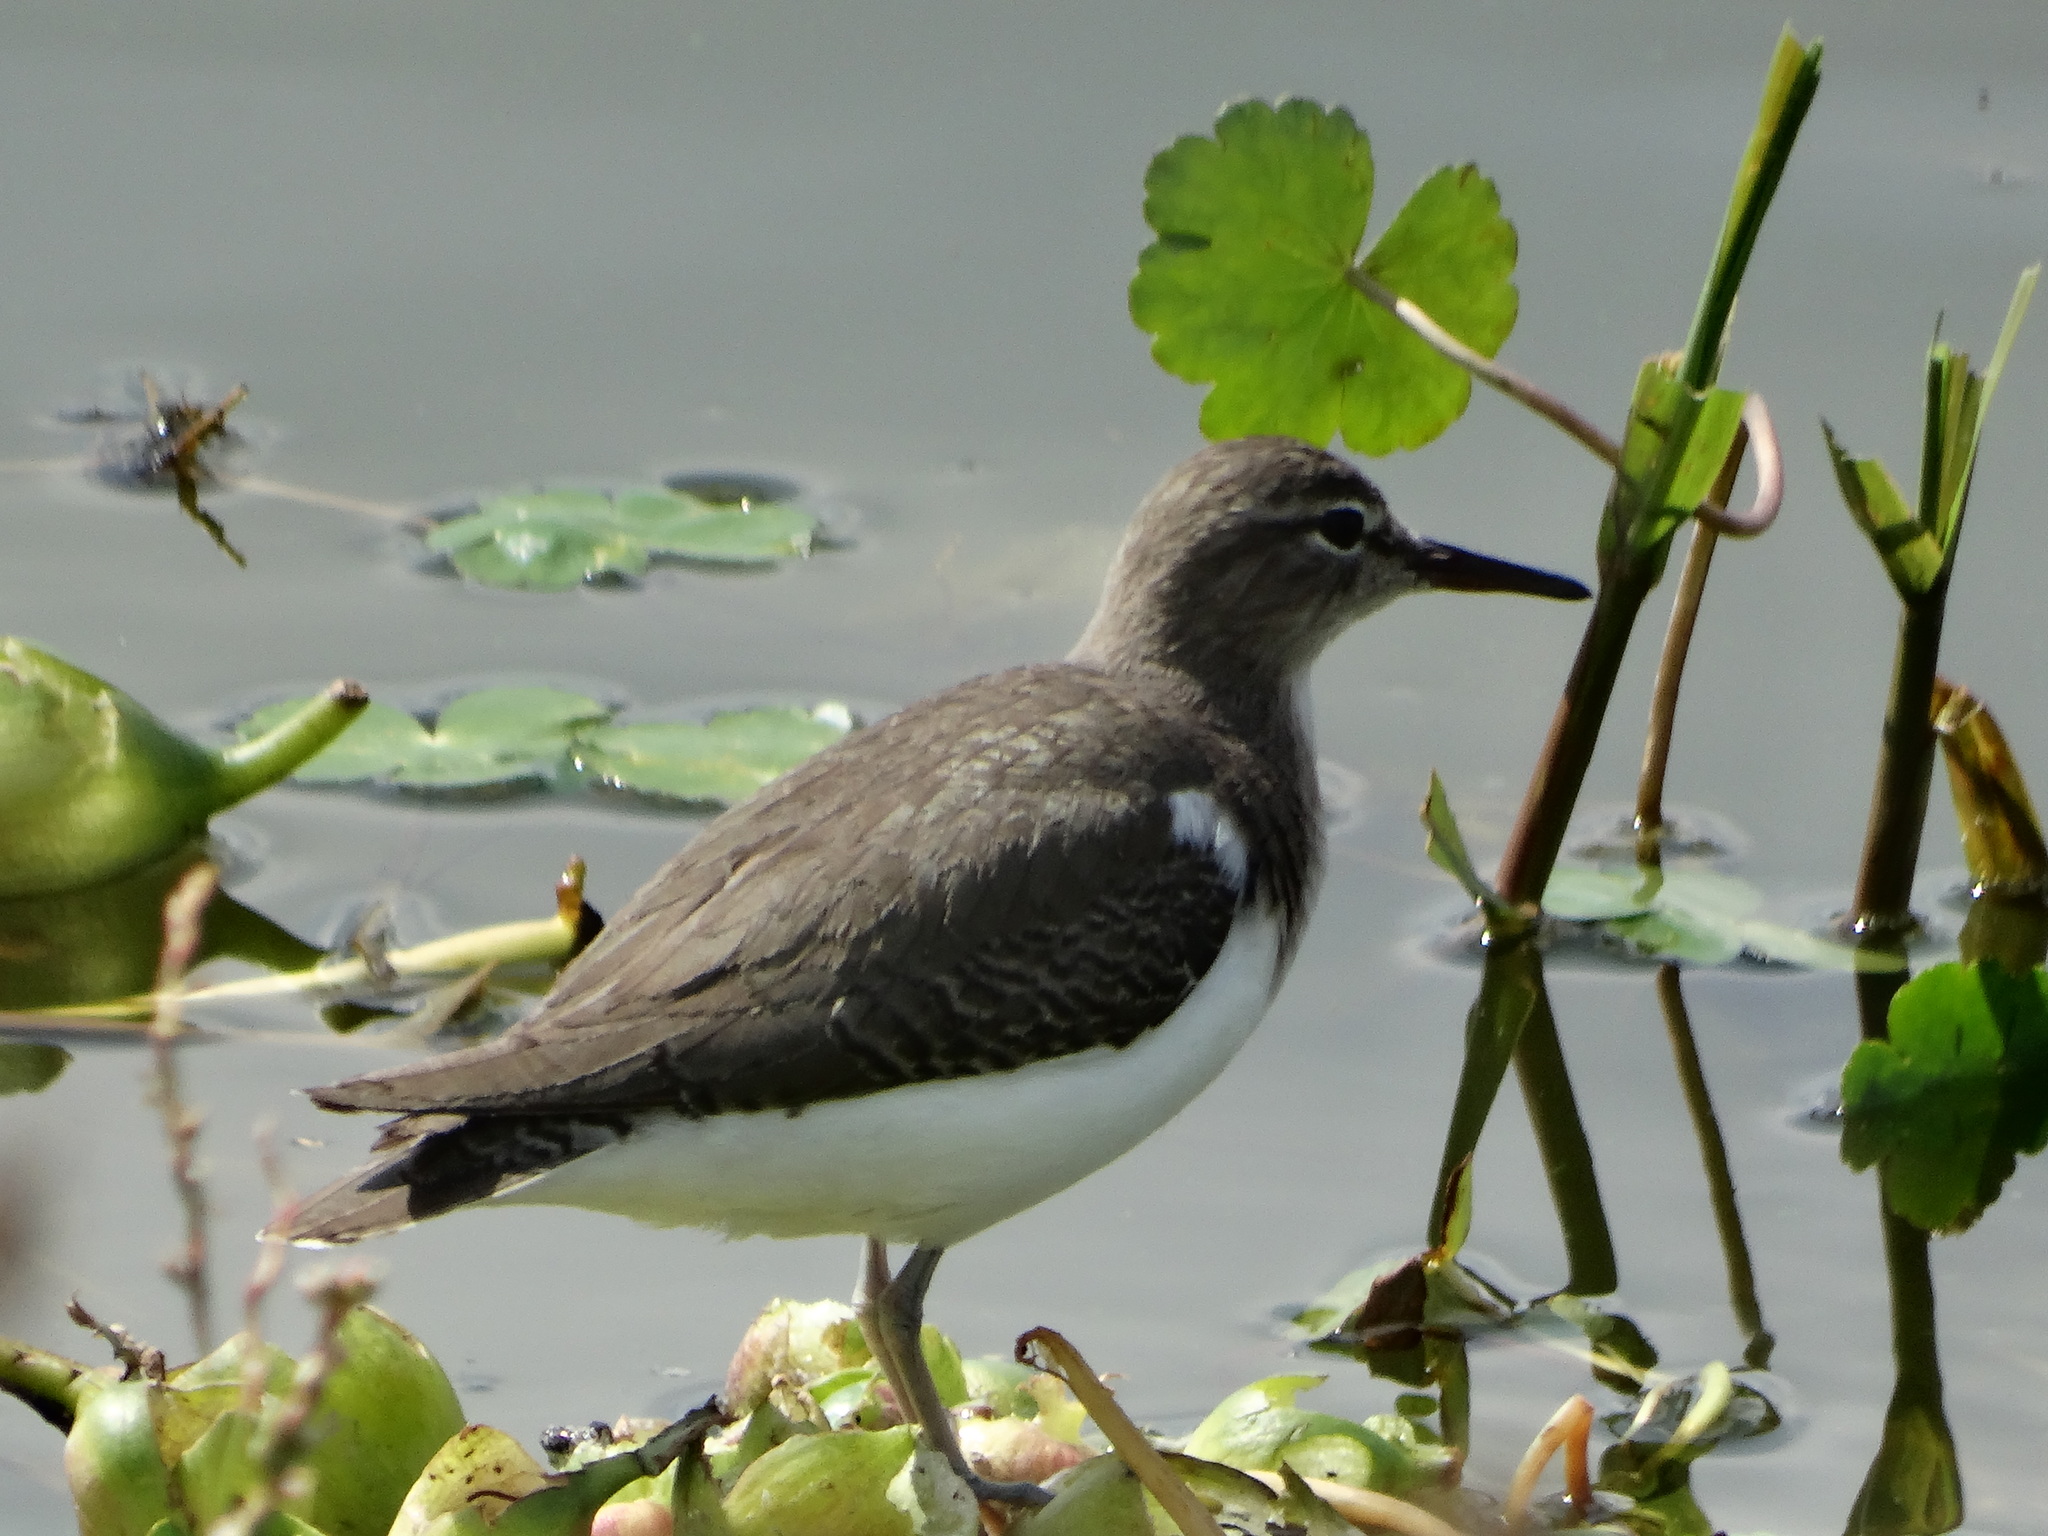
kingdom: Animalia
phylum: Chordata
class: Aves
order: Charadriiformes
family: Scolopacidae
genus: Actitis
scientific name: Actitis macularius
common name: Spotted sandpiper
